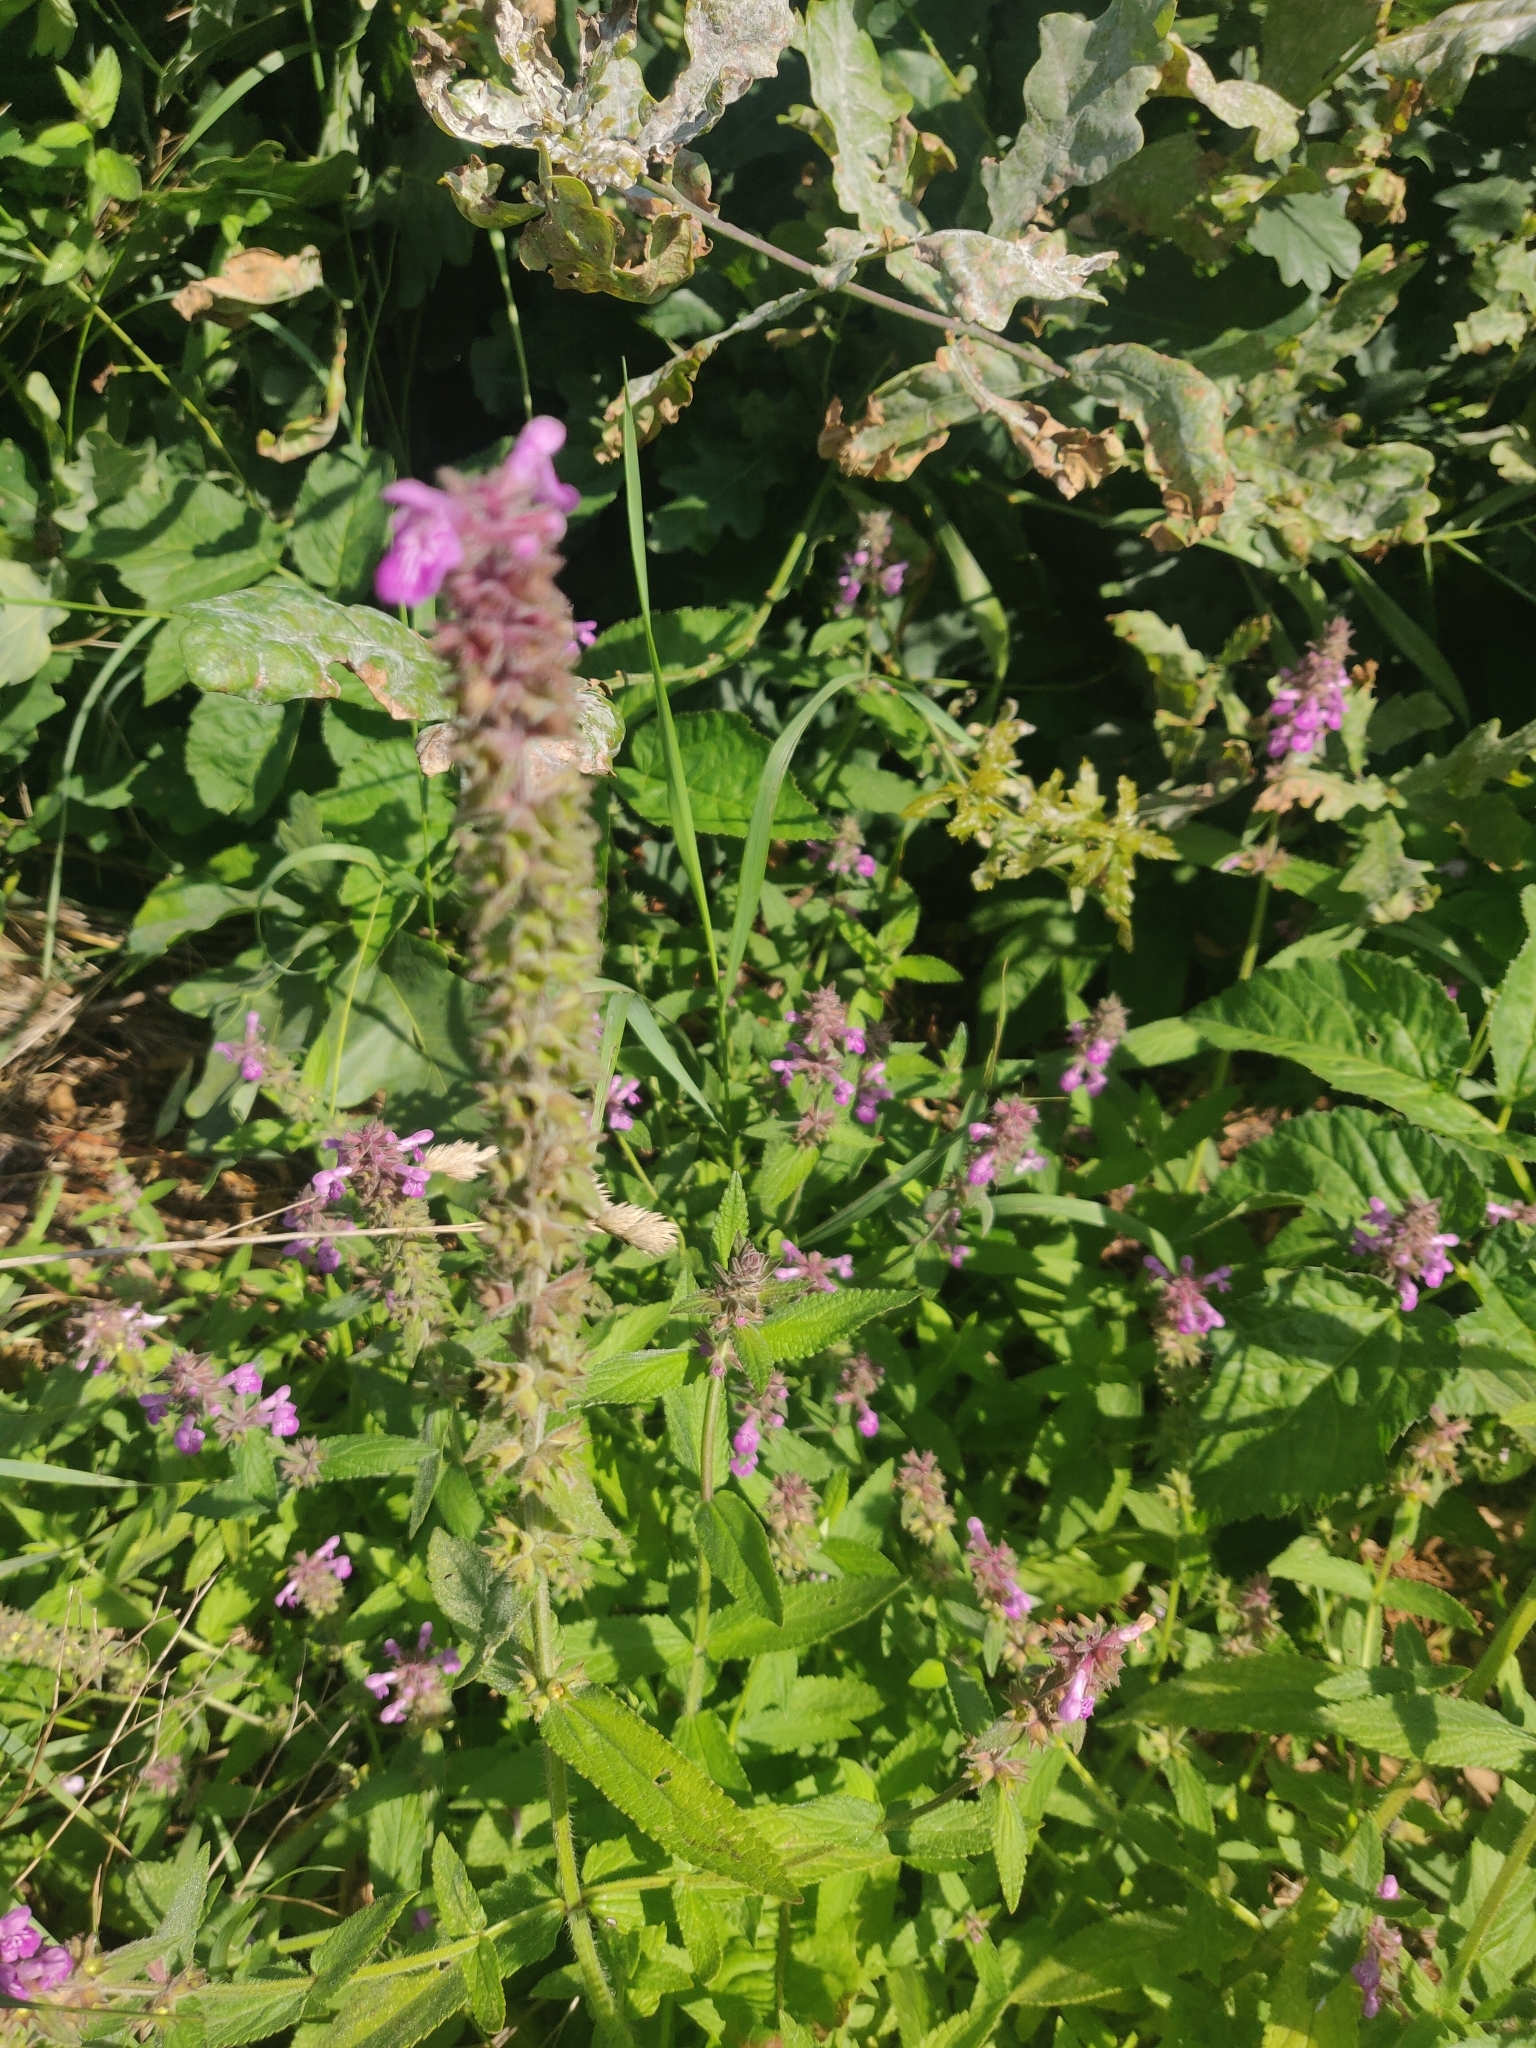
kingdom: Plantae
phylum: Tracheophyta
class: Magnoliopsida
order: Myrtales
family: Lythraceae
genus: Lythrum
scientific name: Lythrum salicaria
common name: Purple loosestrife
